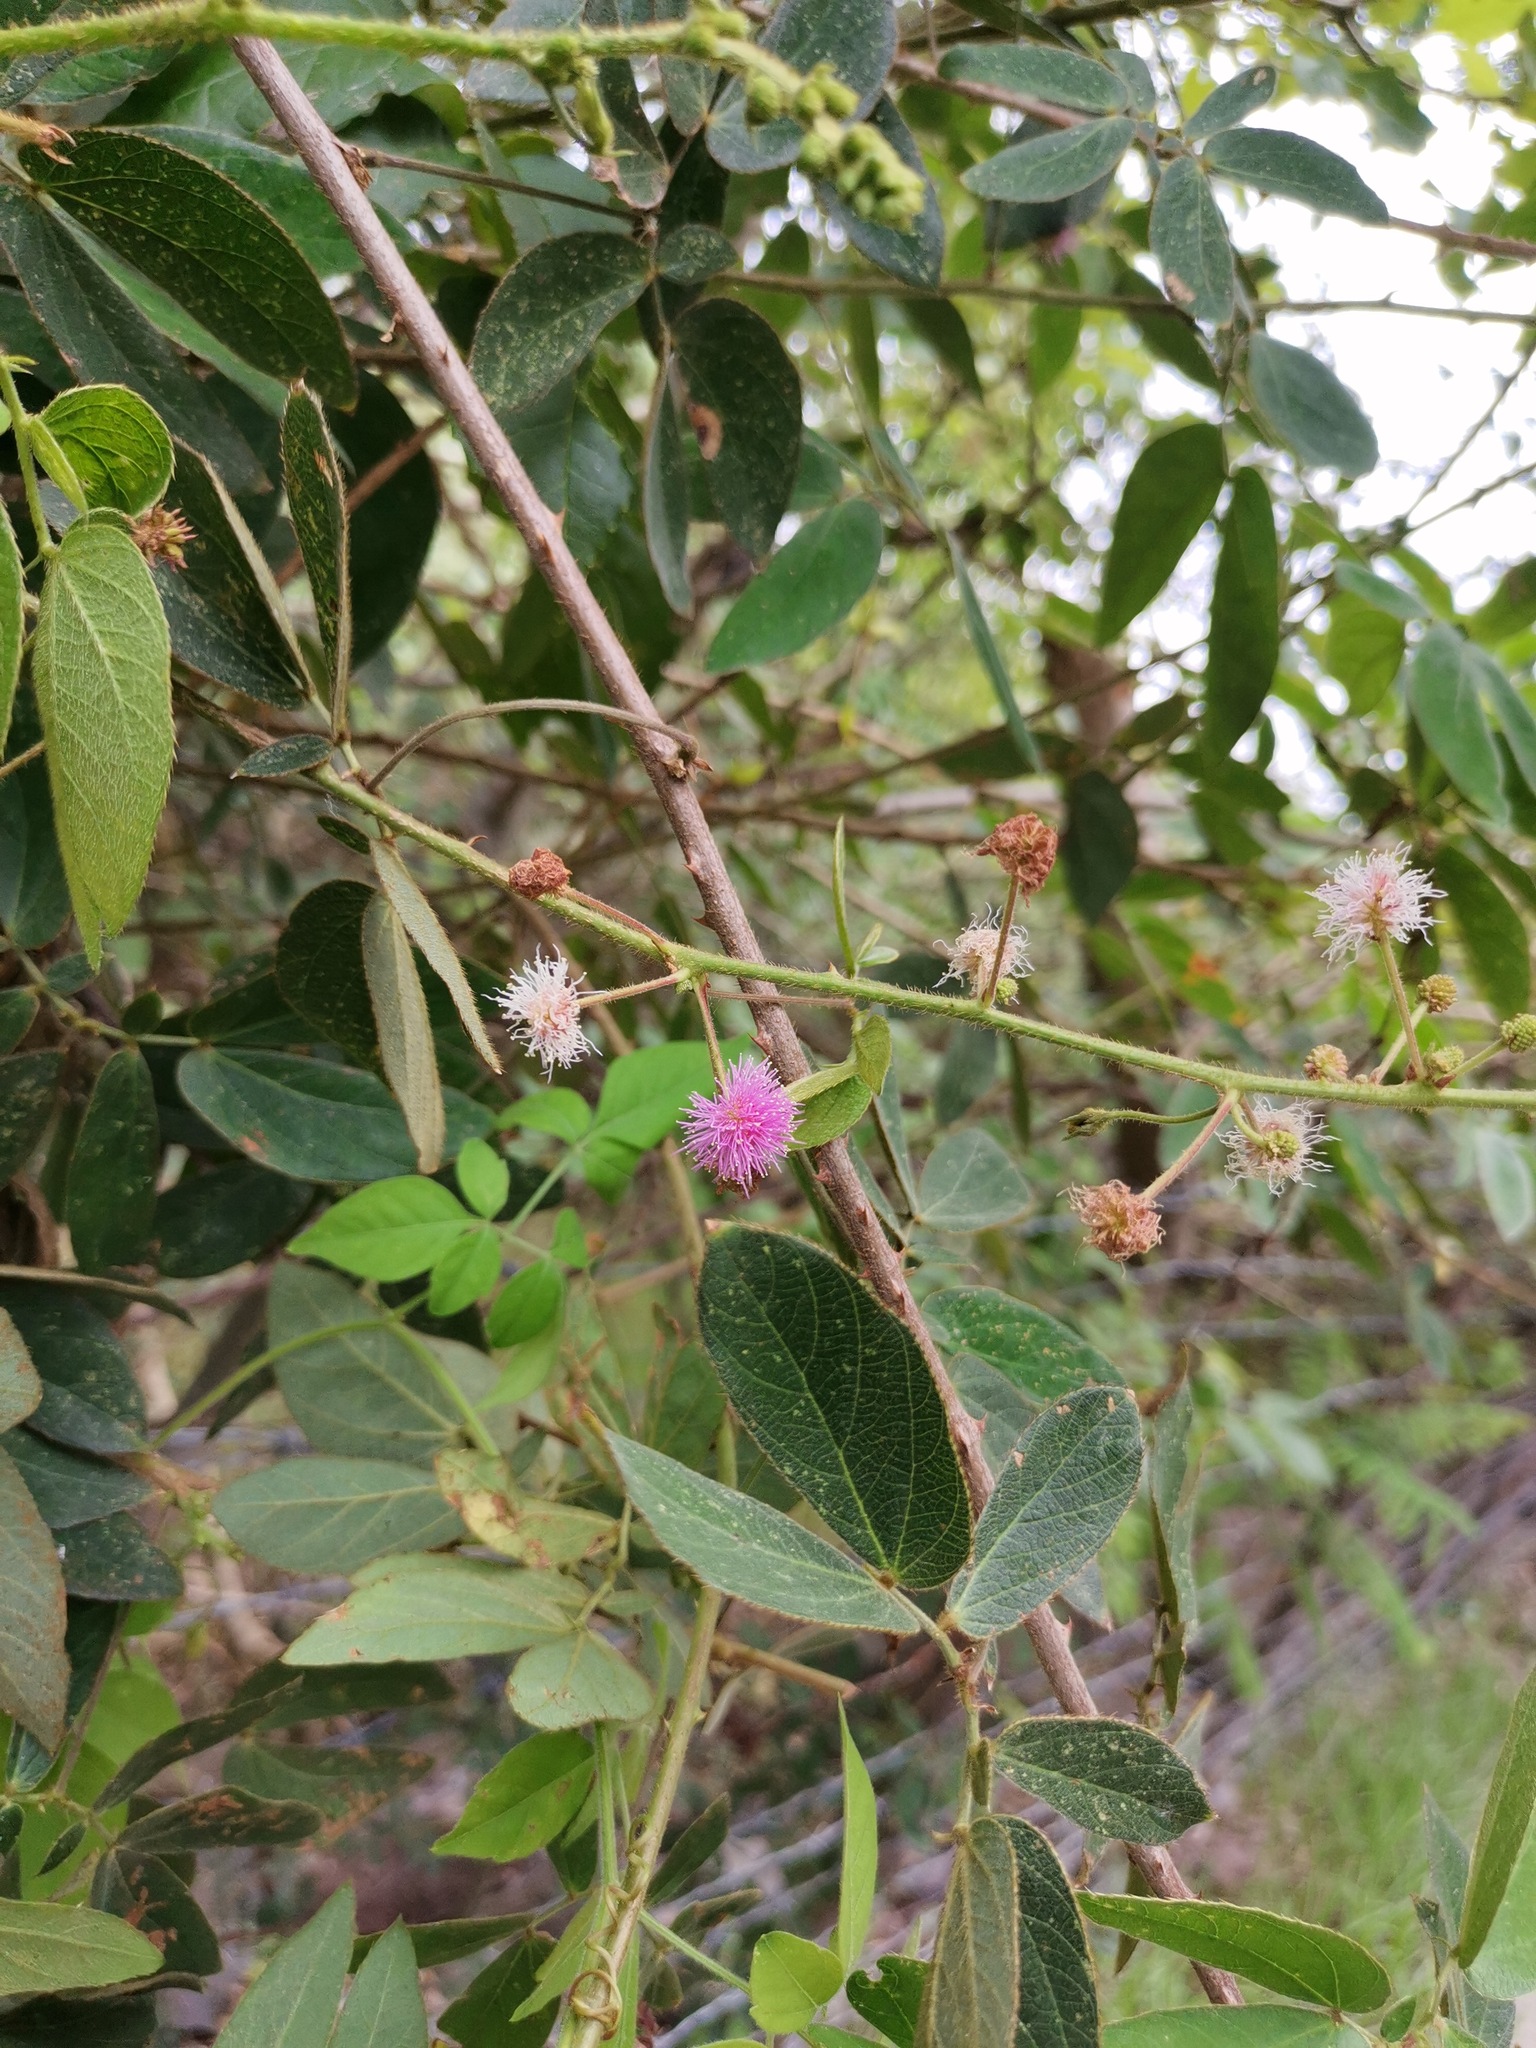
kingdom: Plantae
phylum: Tracheophyta
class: Magnoliopsida
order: Fabales
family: Fabaceae
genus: Mimosa
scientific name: Mimosa albida
